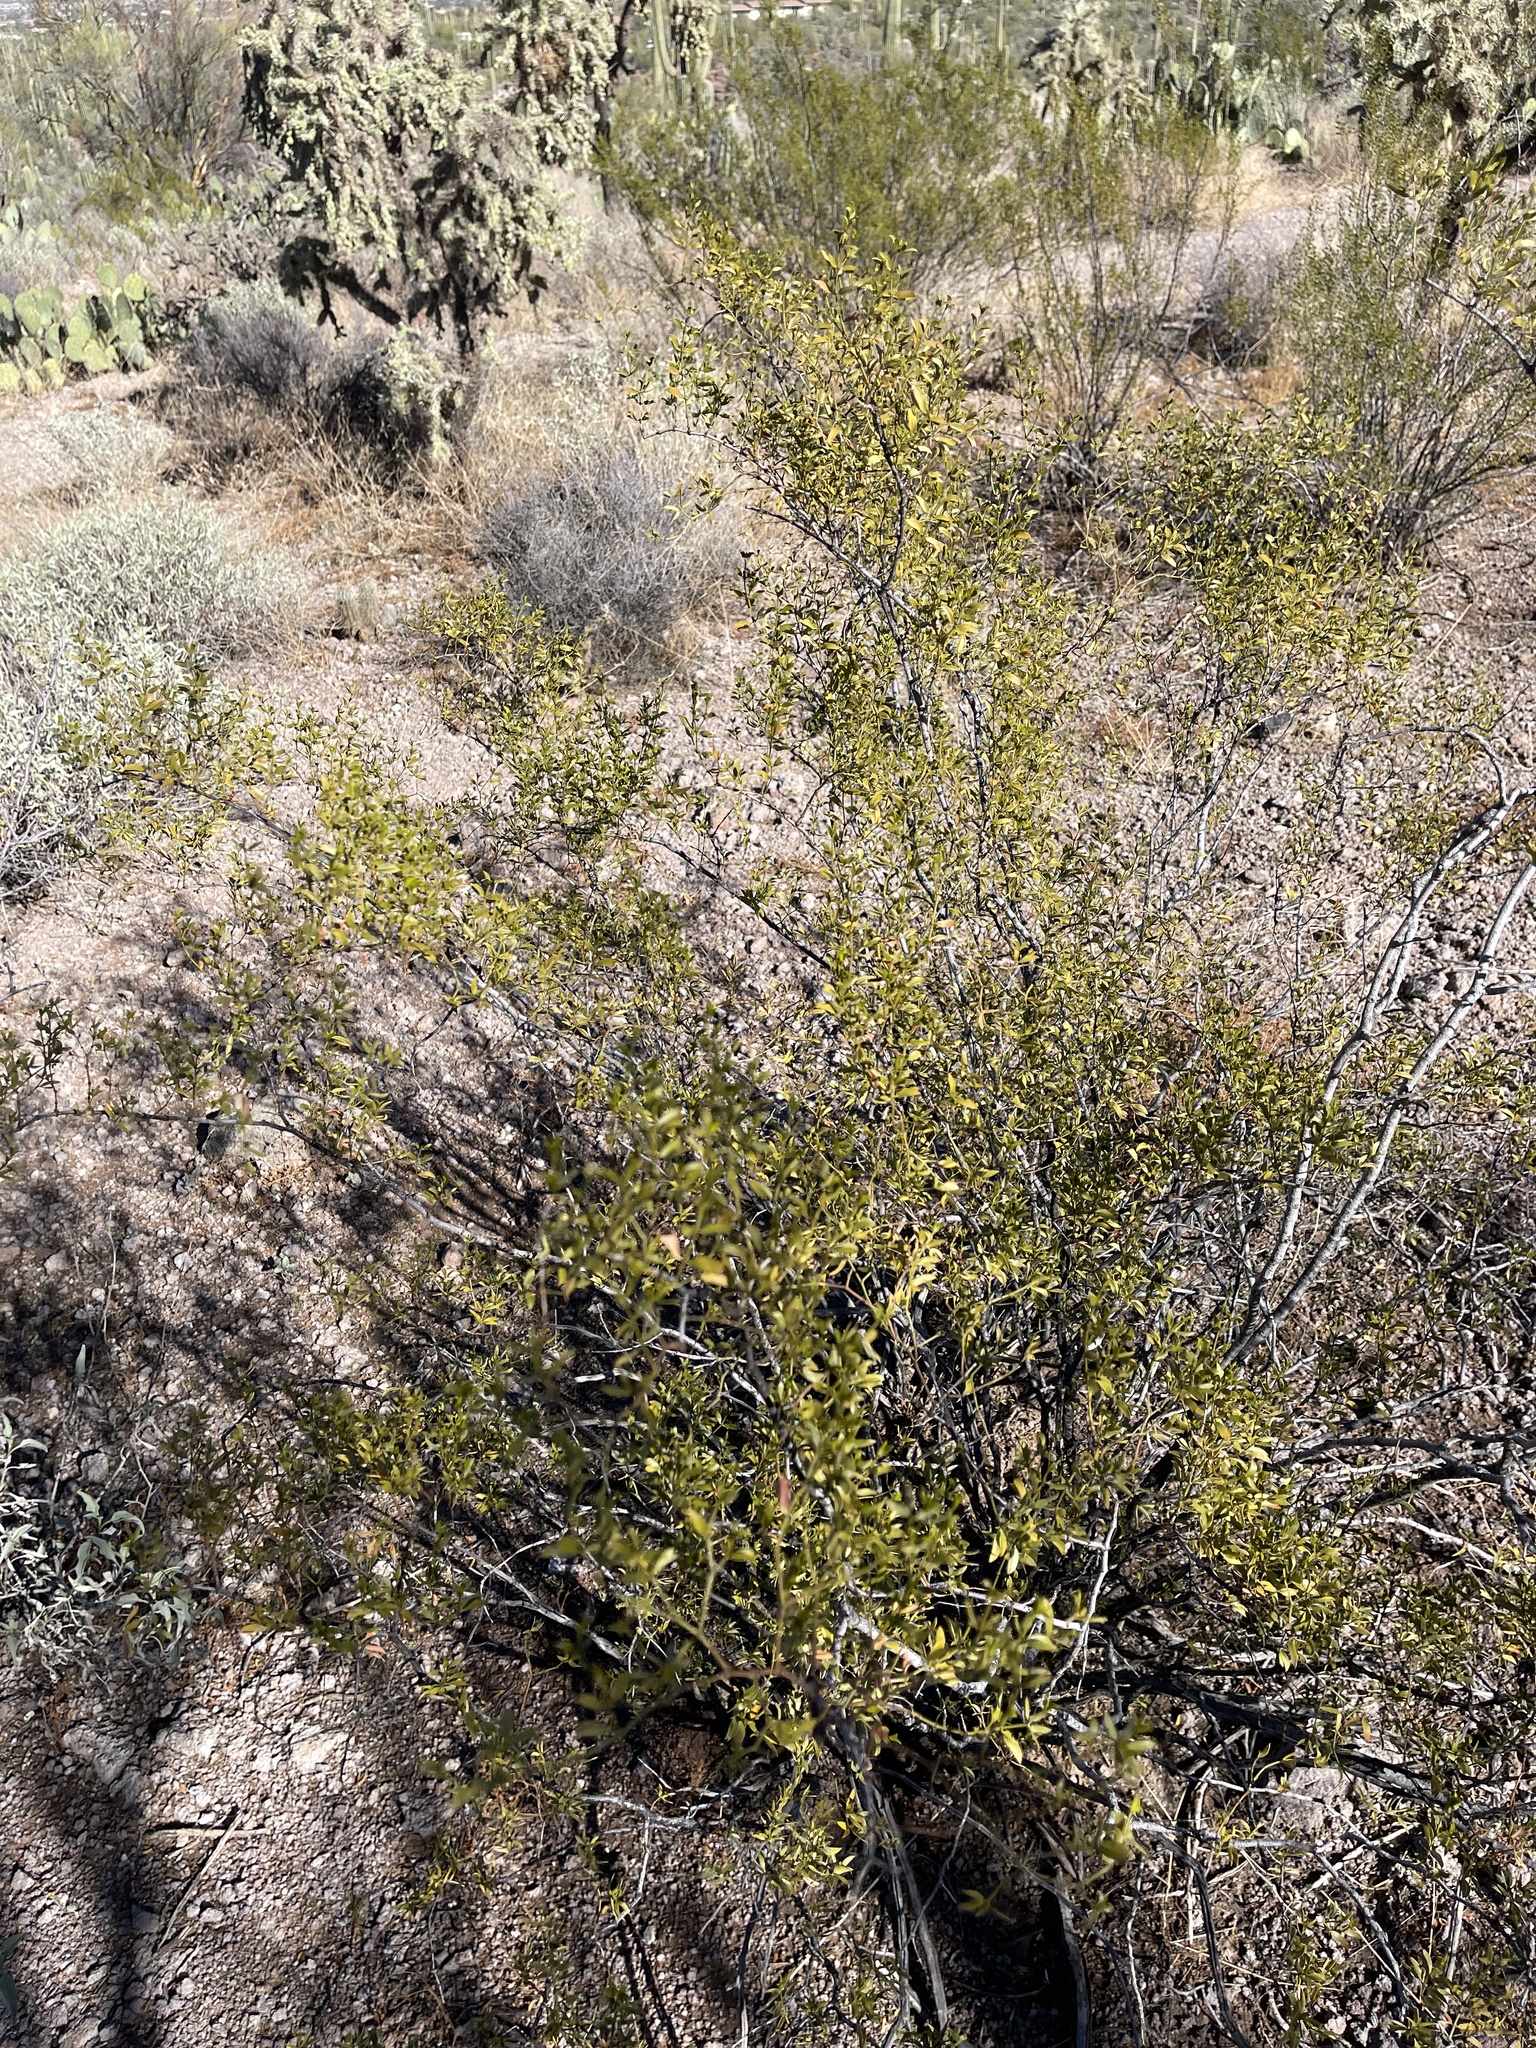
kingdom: Plantae
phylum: Tracheophyta
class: Magnoliopsida
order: Zygophyllales
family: Zygophyllaceae
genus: Larrea
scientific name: Larrea tridentata
